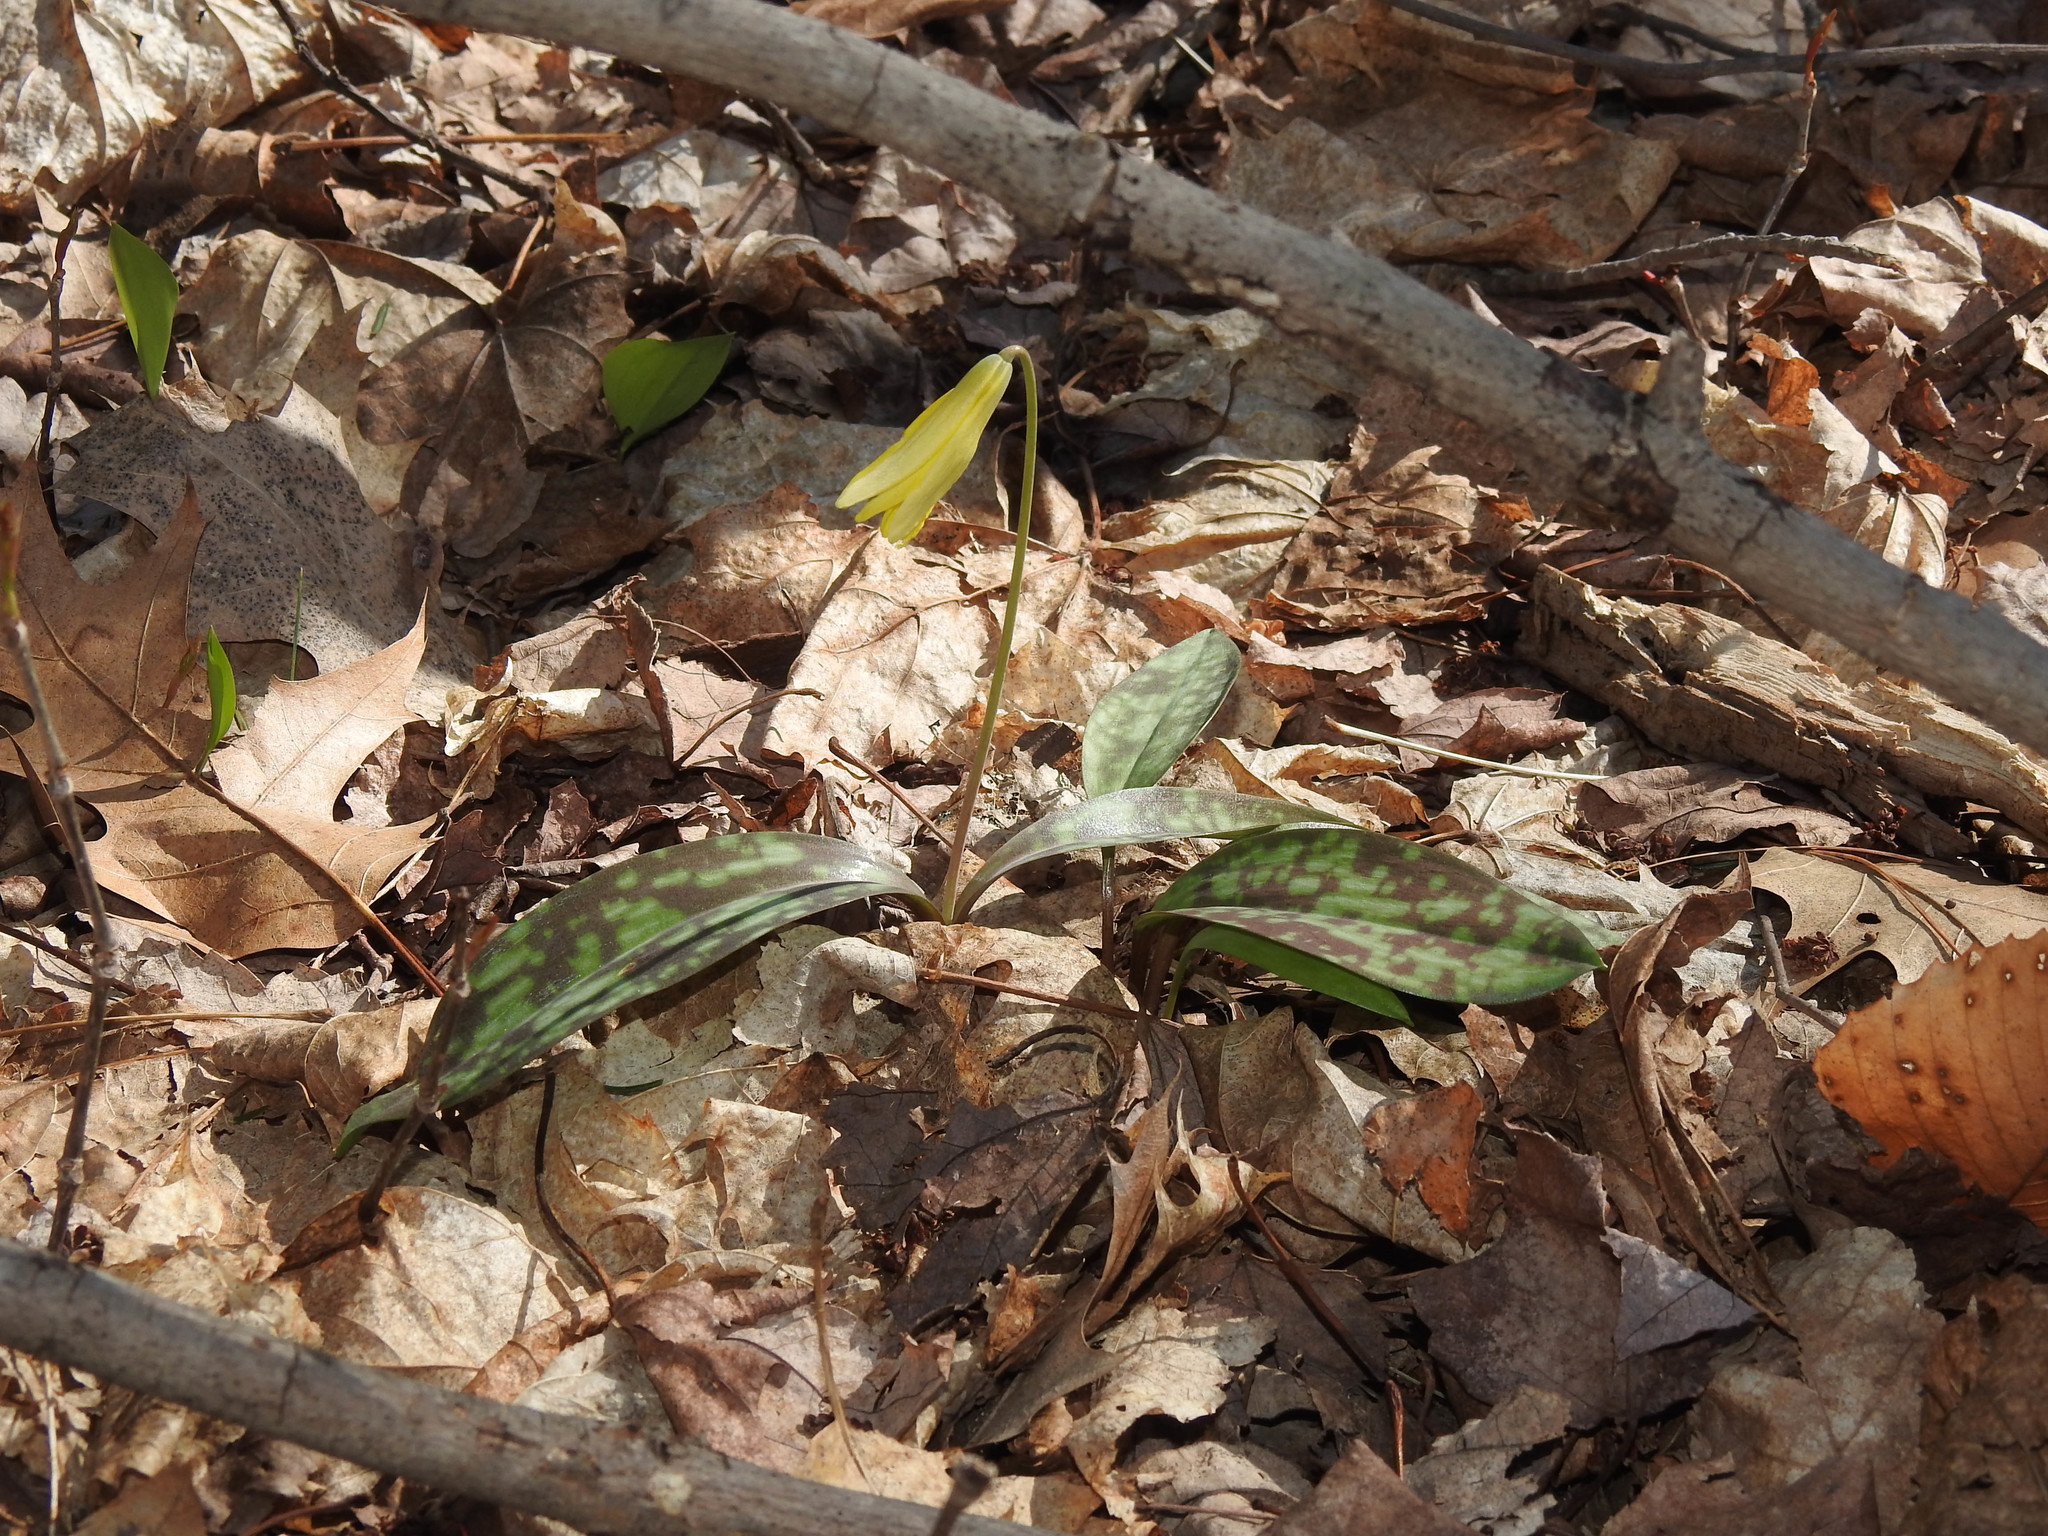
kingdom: Plantae
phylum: Tracheophyta
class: Liliopsida
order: Liliales
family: Liliaceae
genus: Erythronium
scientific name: Erythronium americanum
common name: Yellow adder's-tongue
